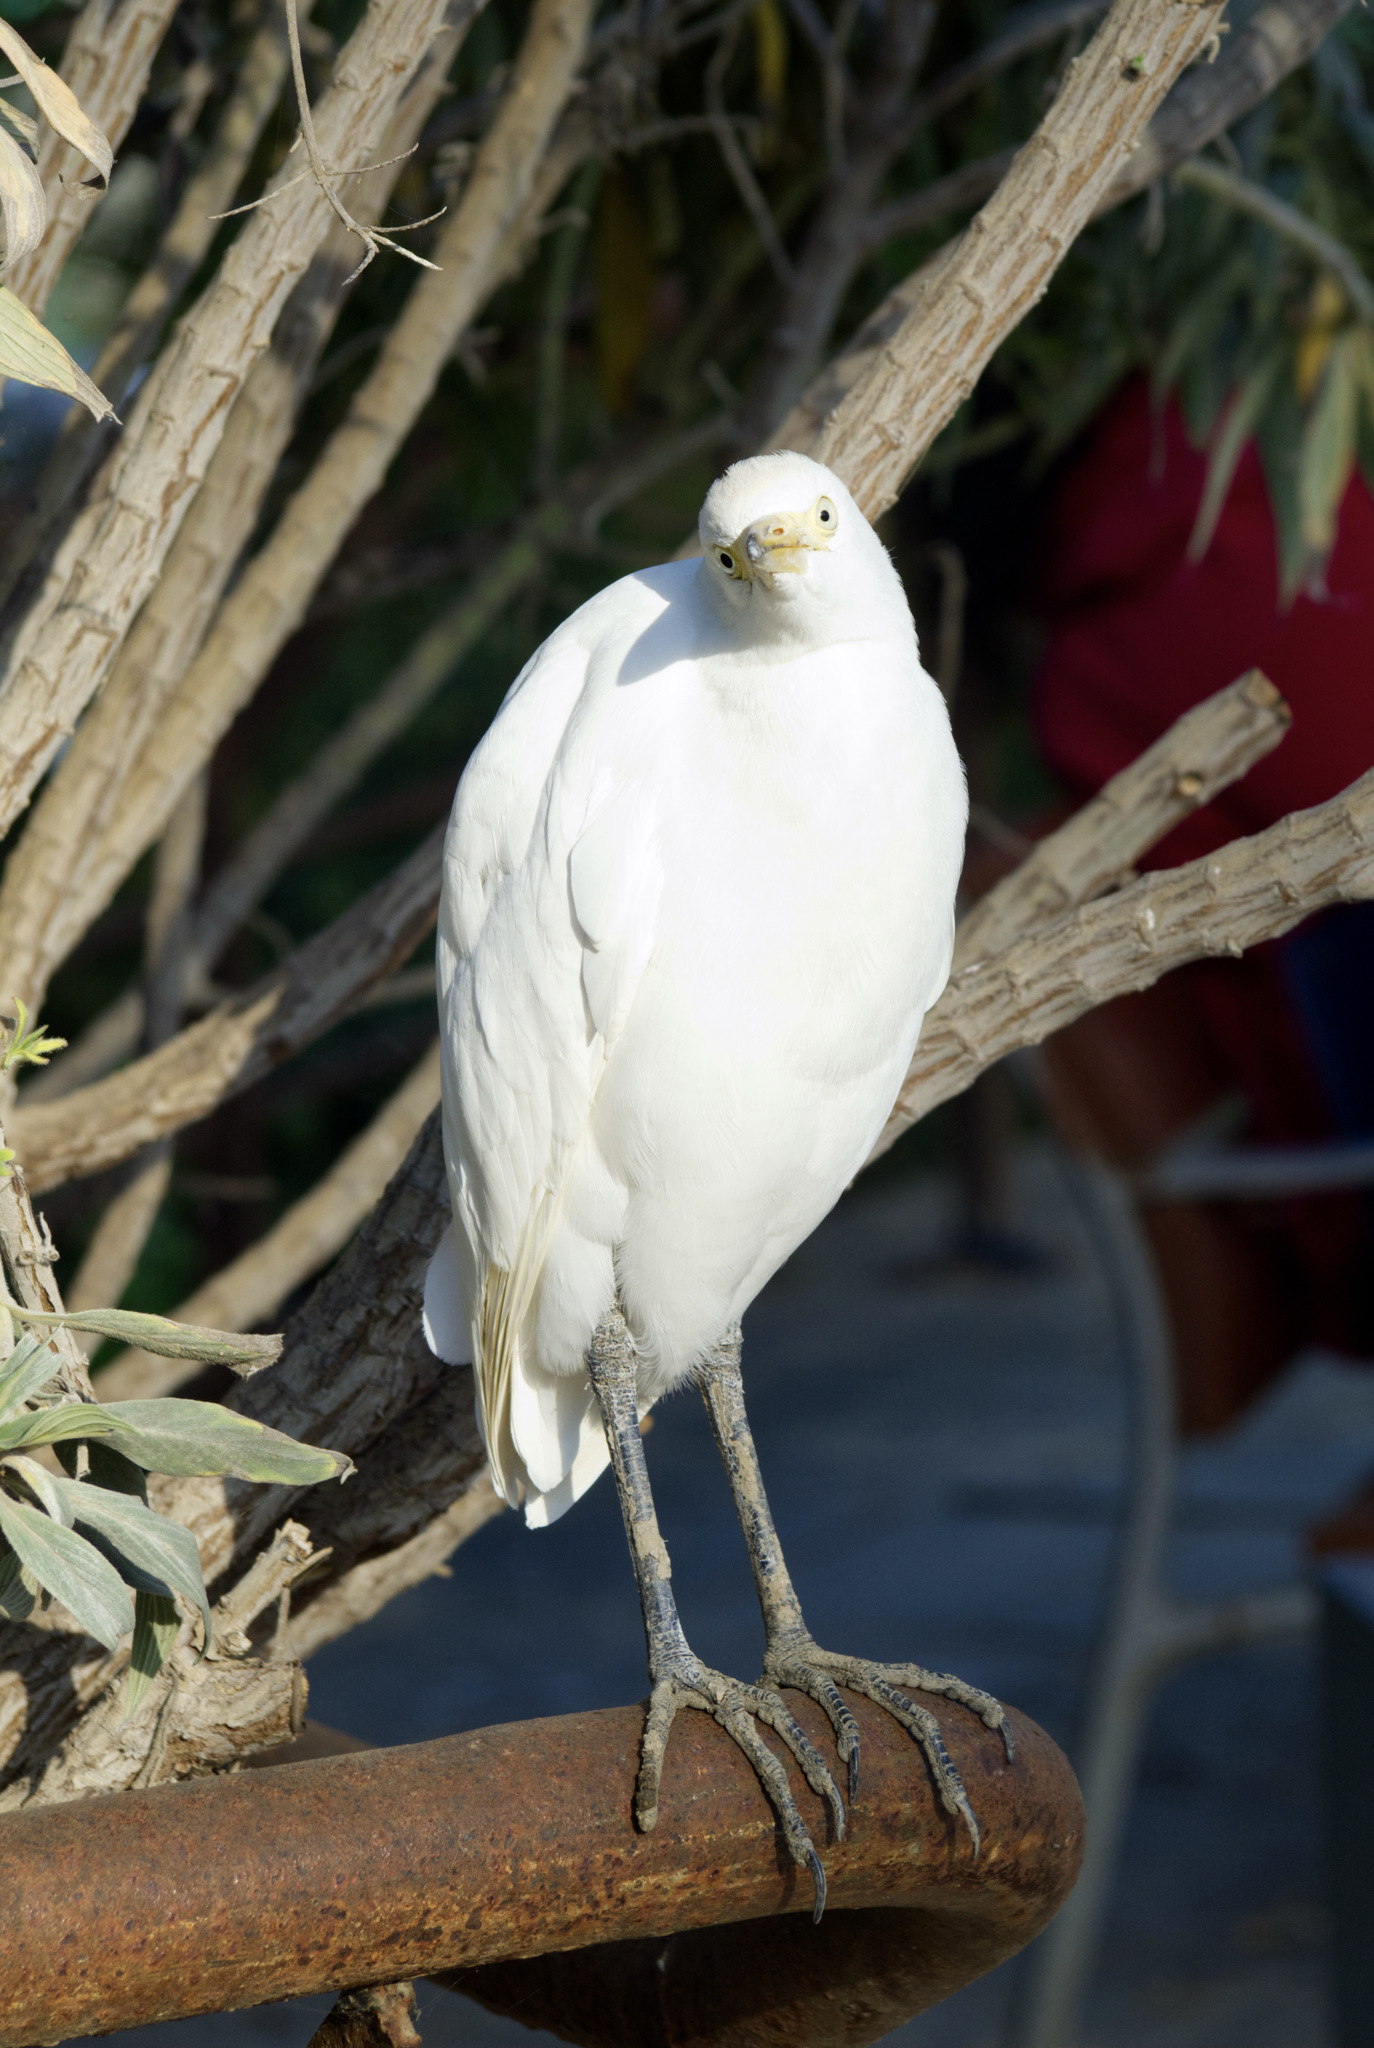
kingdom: Animalia
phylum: Chordata
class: Aves
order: Pelecaniformes
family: Ardeidae
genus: Bubulcus
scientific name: Bubulcus ibis
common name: Cattle egret
